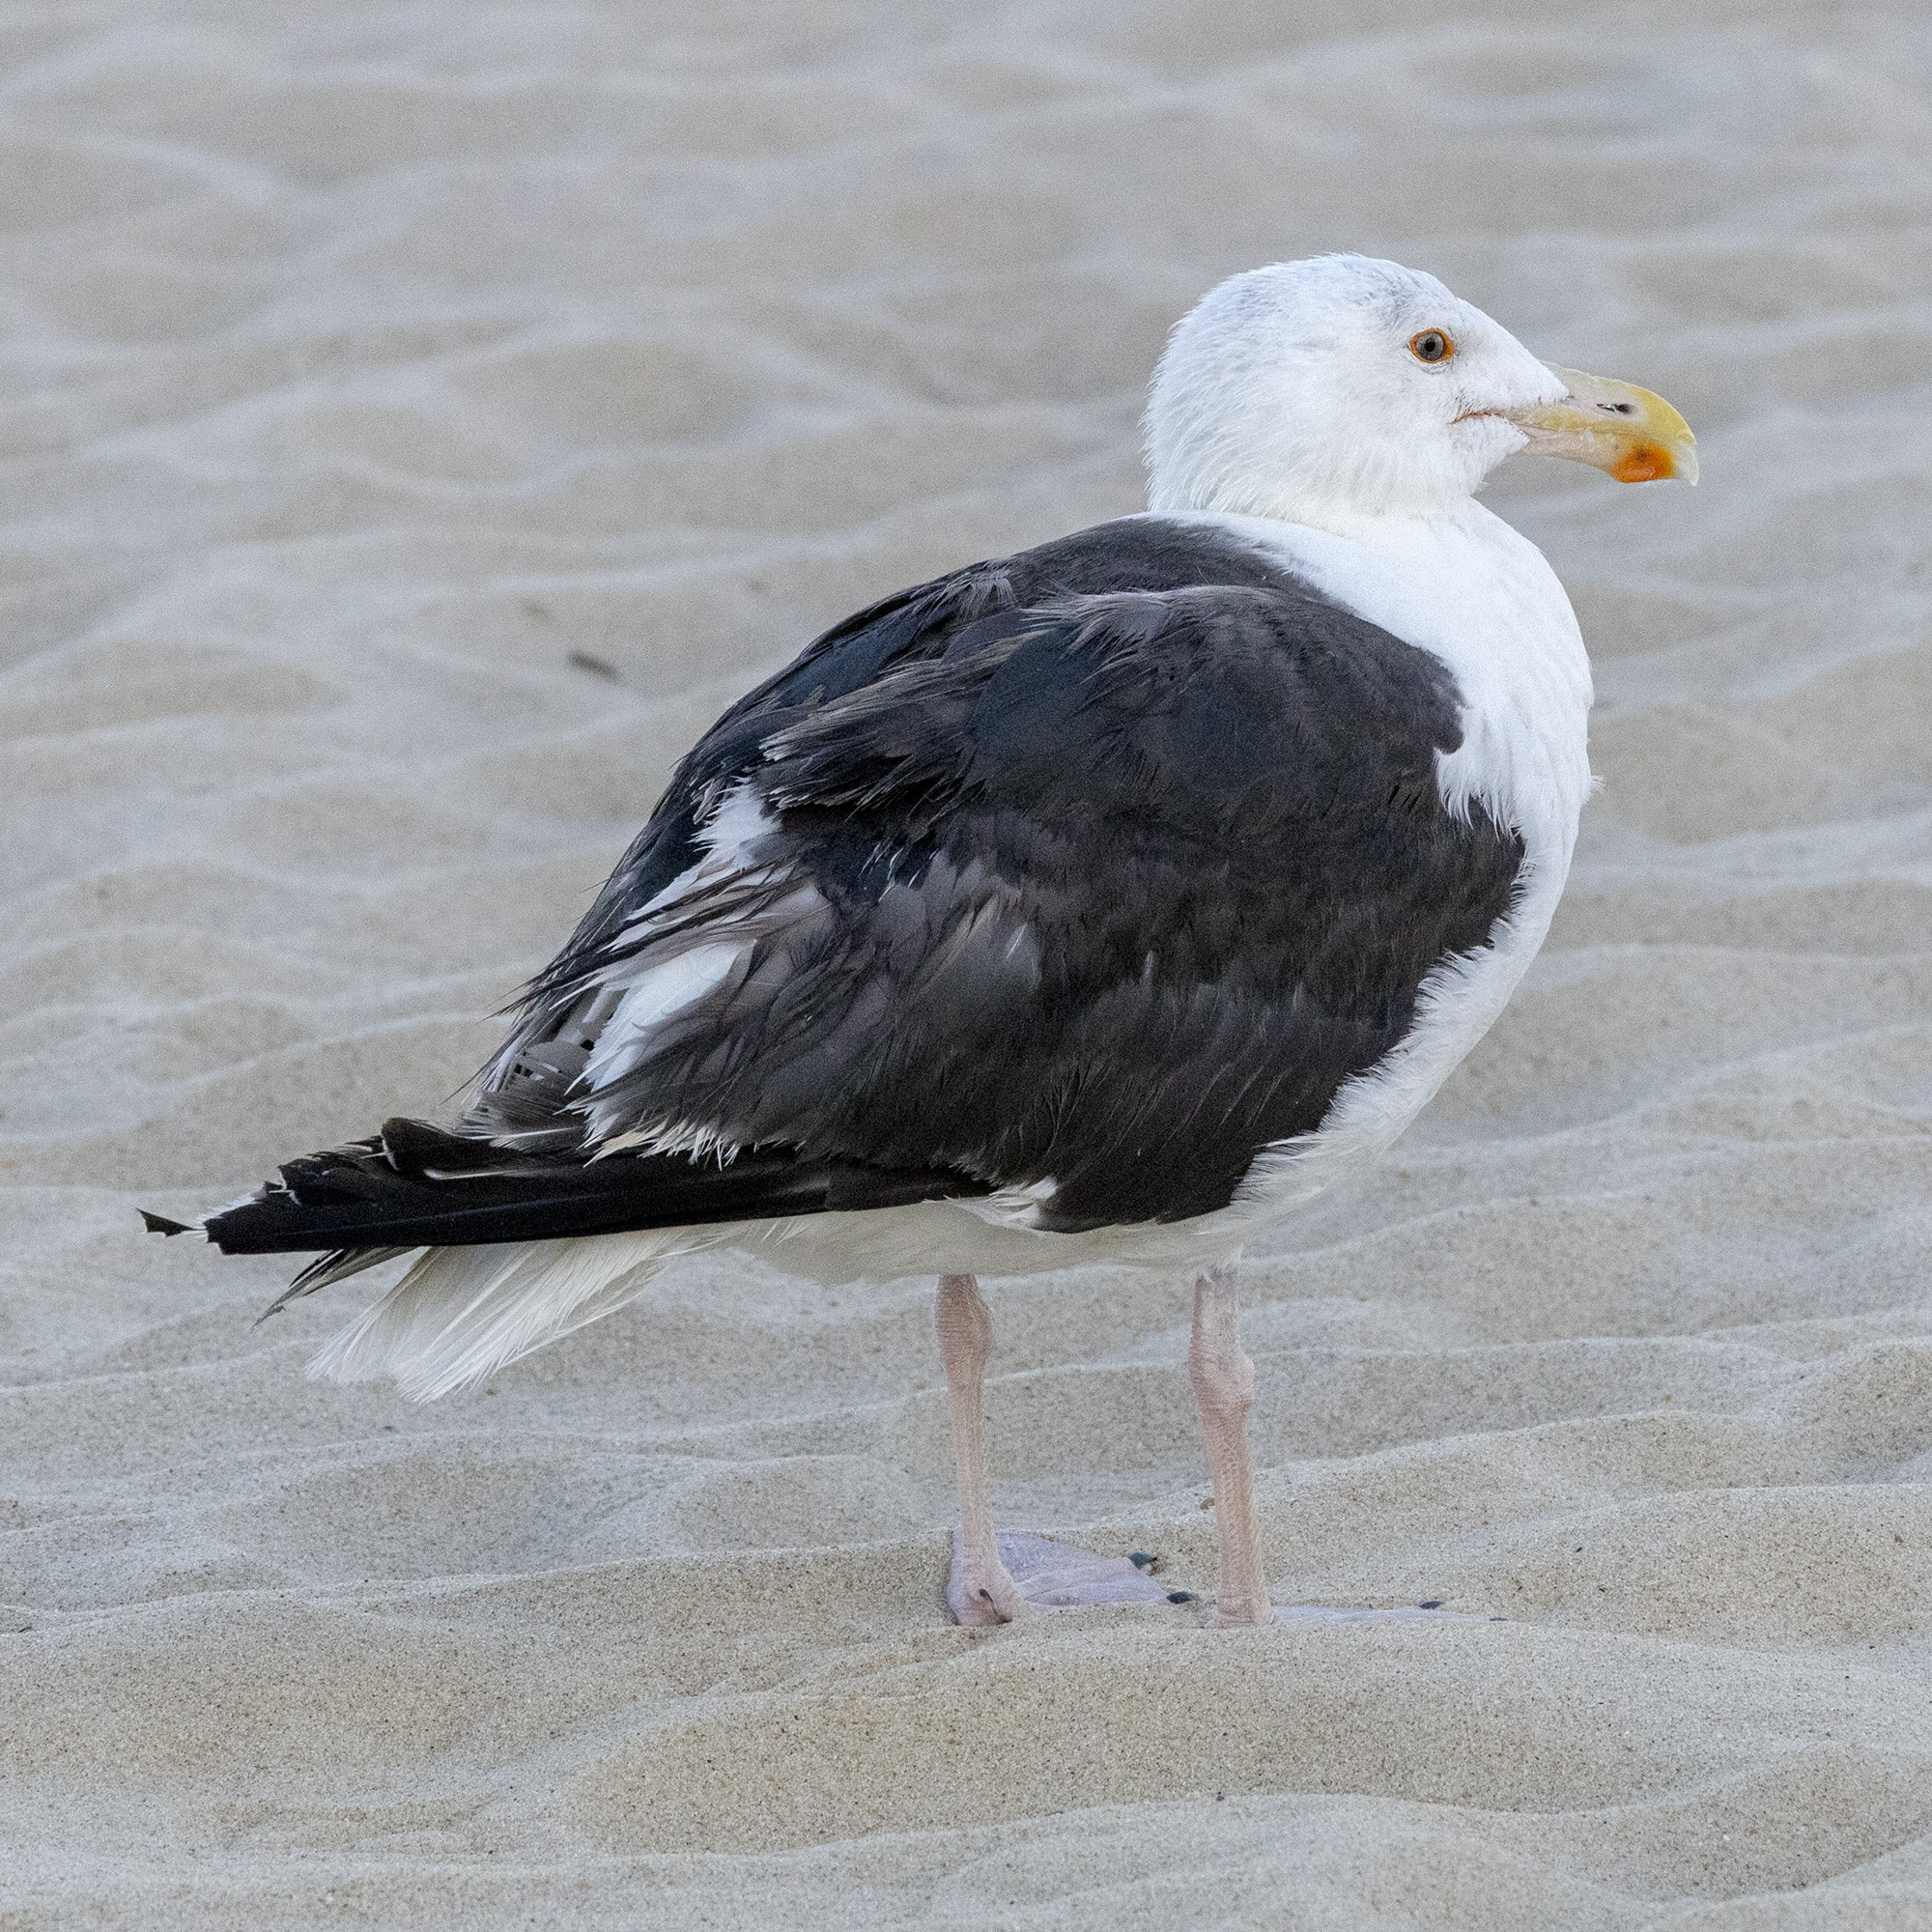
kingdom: Animalia
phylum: Chordata
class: Aves
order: Charadriiformes
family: Laridae
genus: Larus
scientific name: Larus marinus
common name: Great black-backed gull
